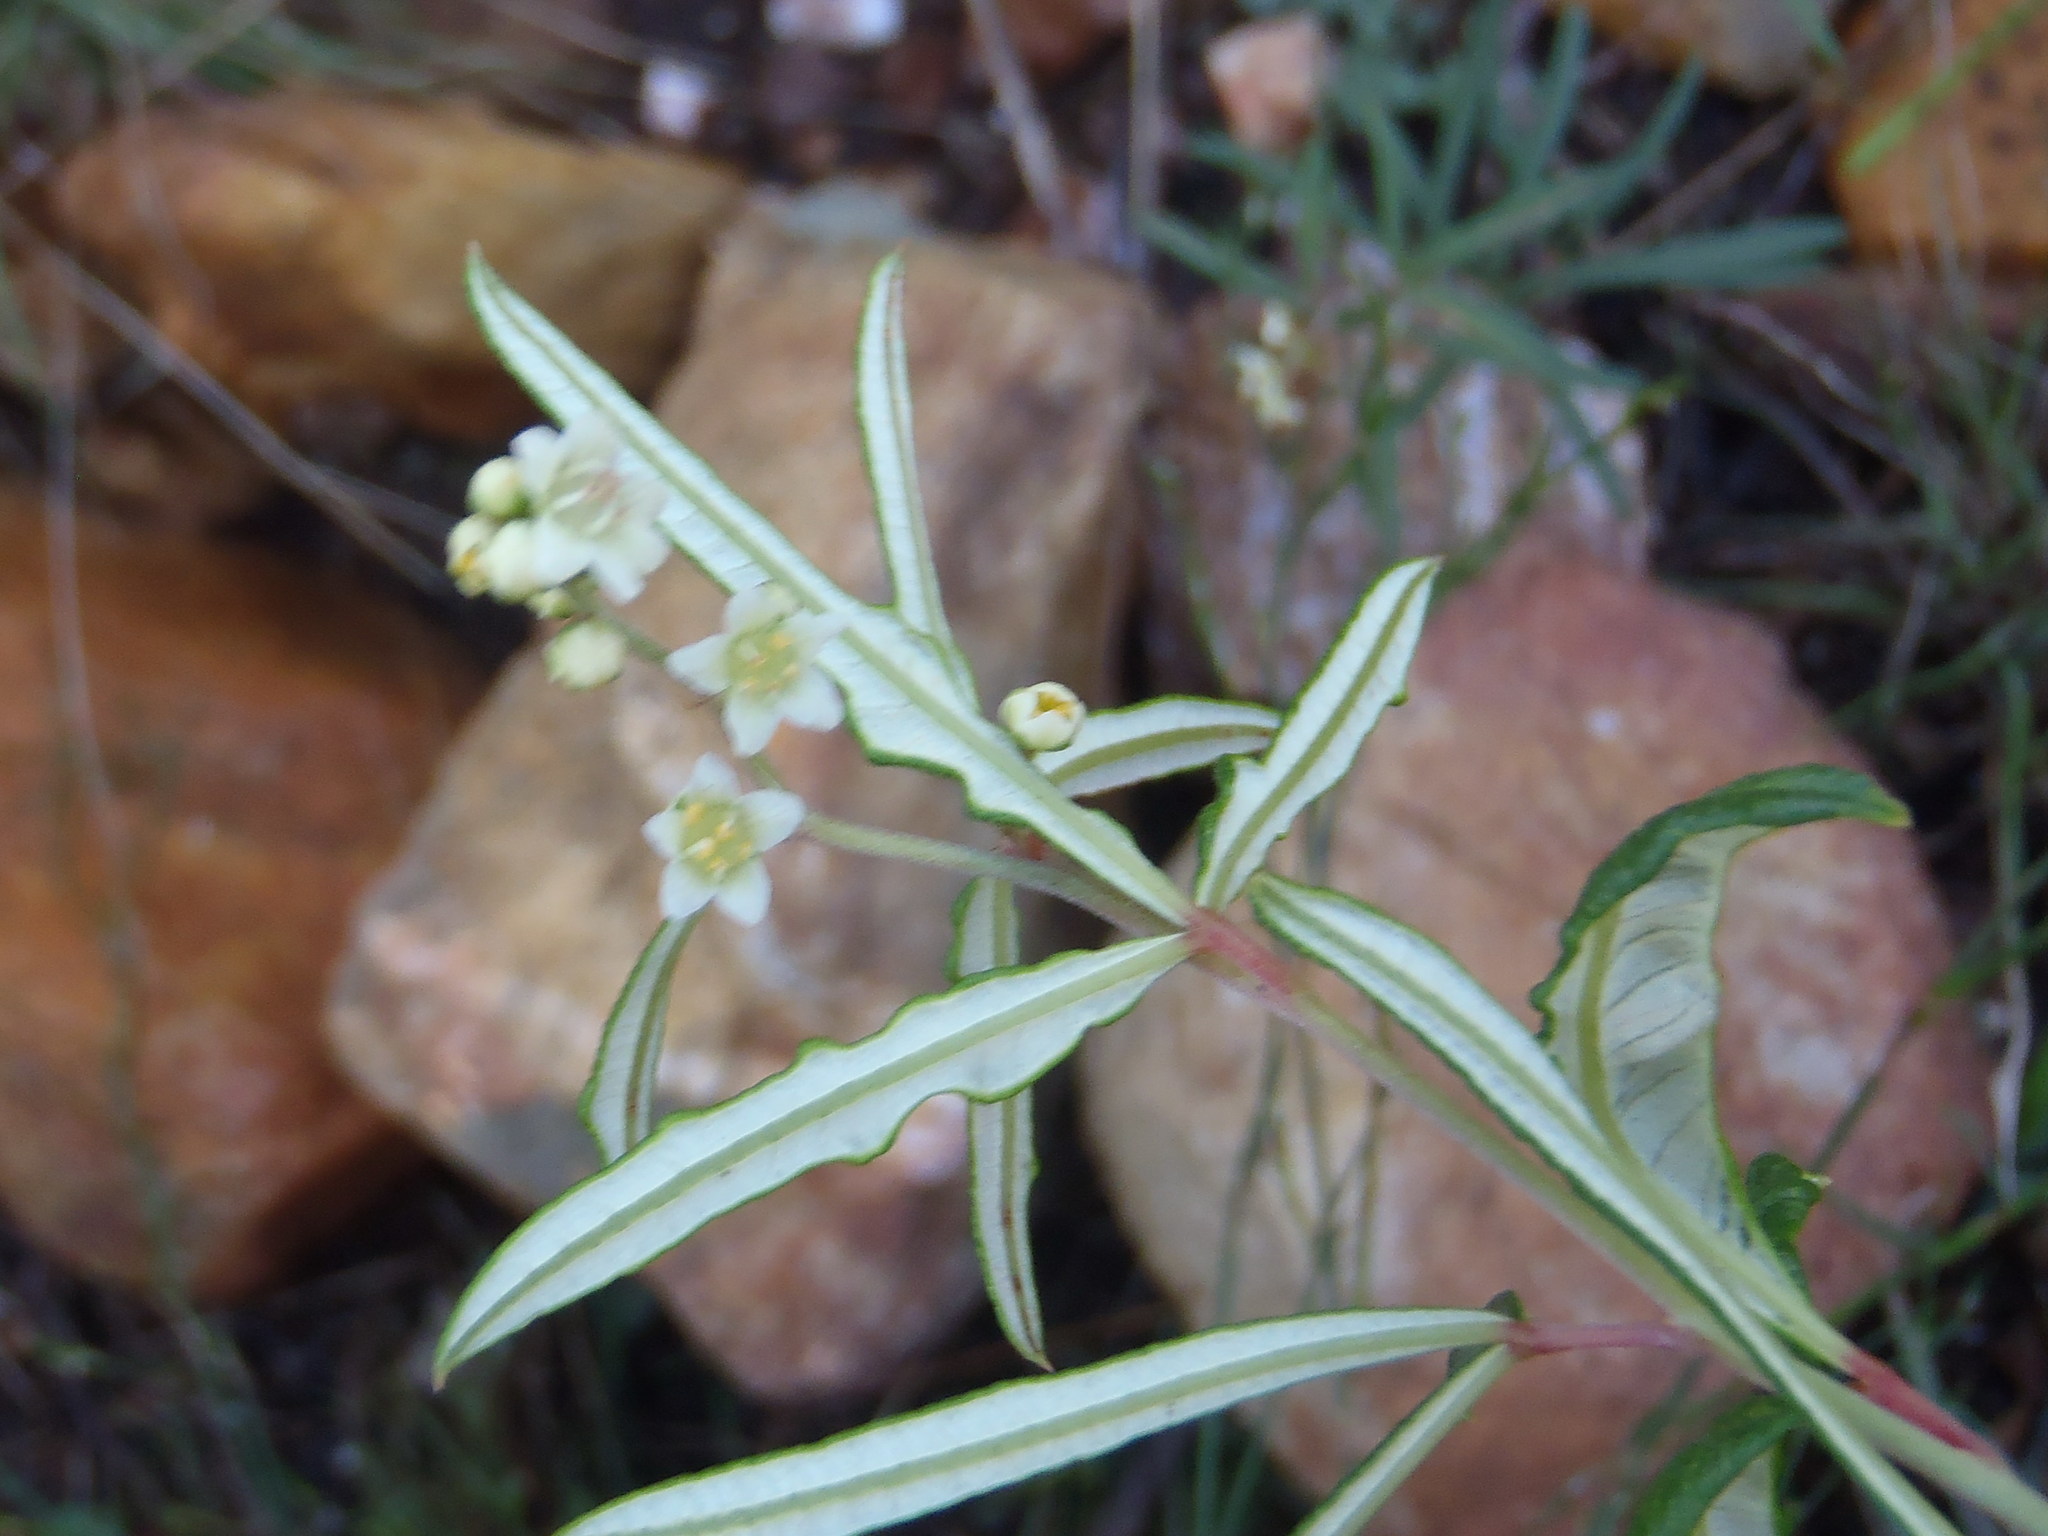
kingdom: Plantae
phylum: Tracheophyta
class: Magnoliopsida
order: Sapindales
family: Anacardiaceae
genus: Searsia
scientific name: Searsia rosmarinifolia
